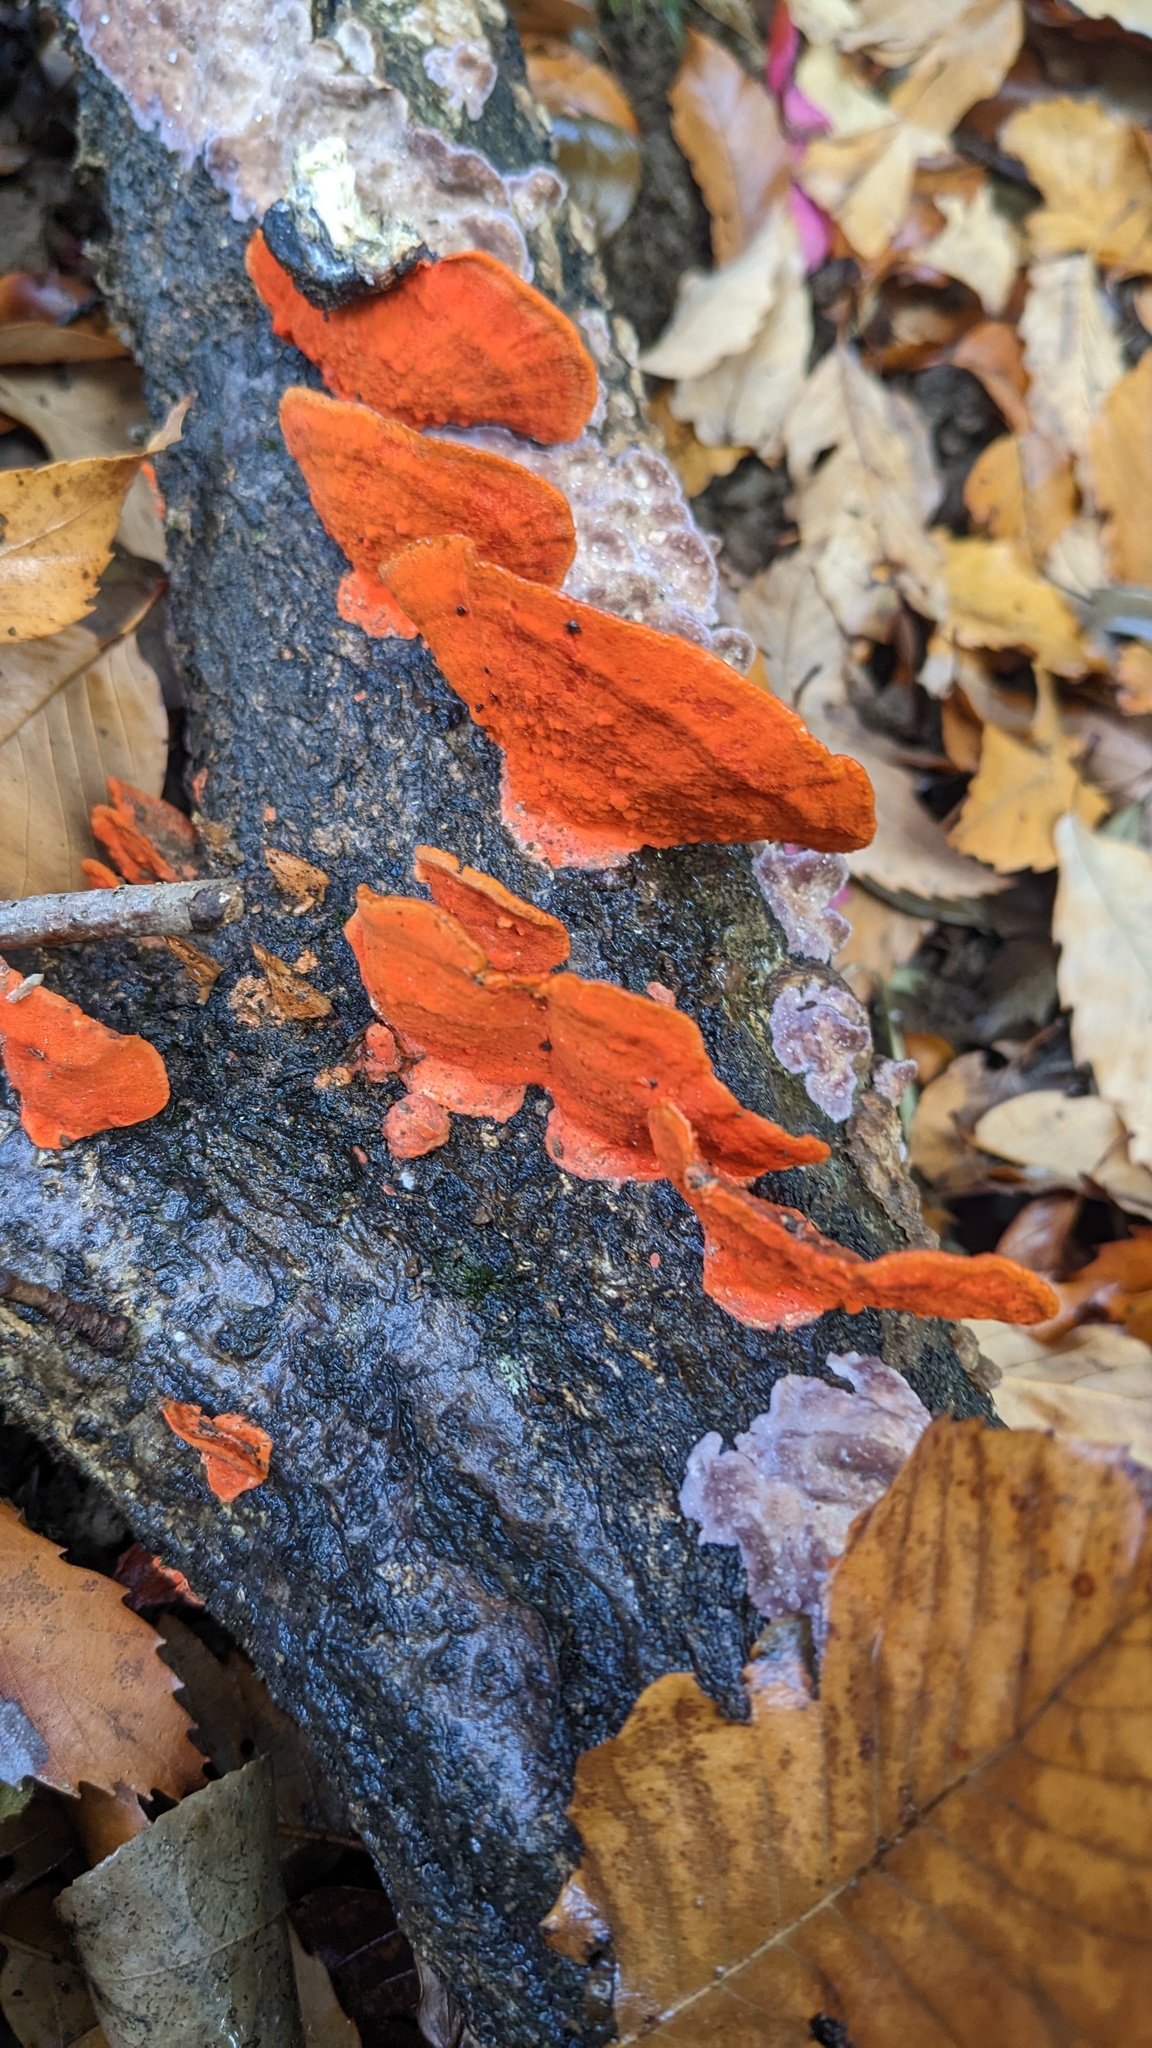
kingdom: Fungi
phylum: Basidiomycota
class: Agaricomycetes
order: Polyporales
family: Polyporaceae
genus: Trametes
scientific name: Trametes coccinea
